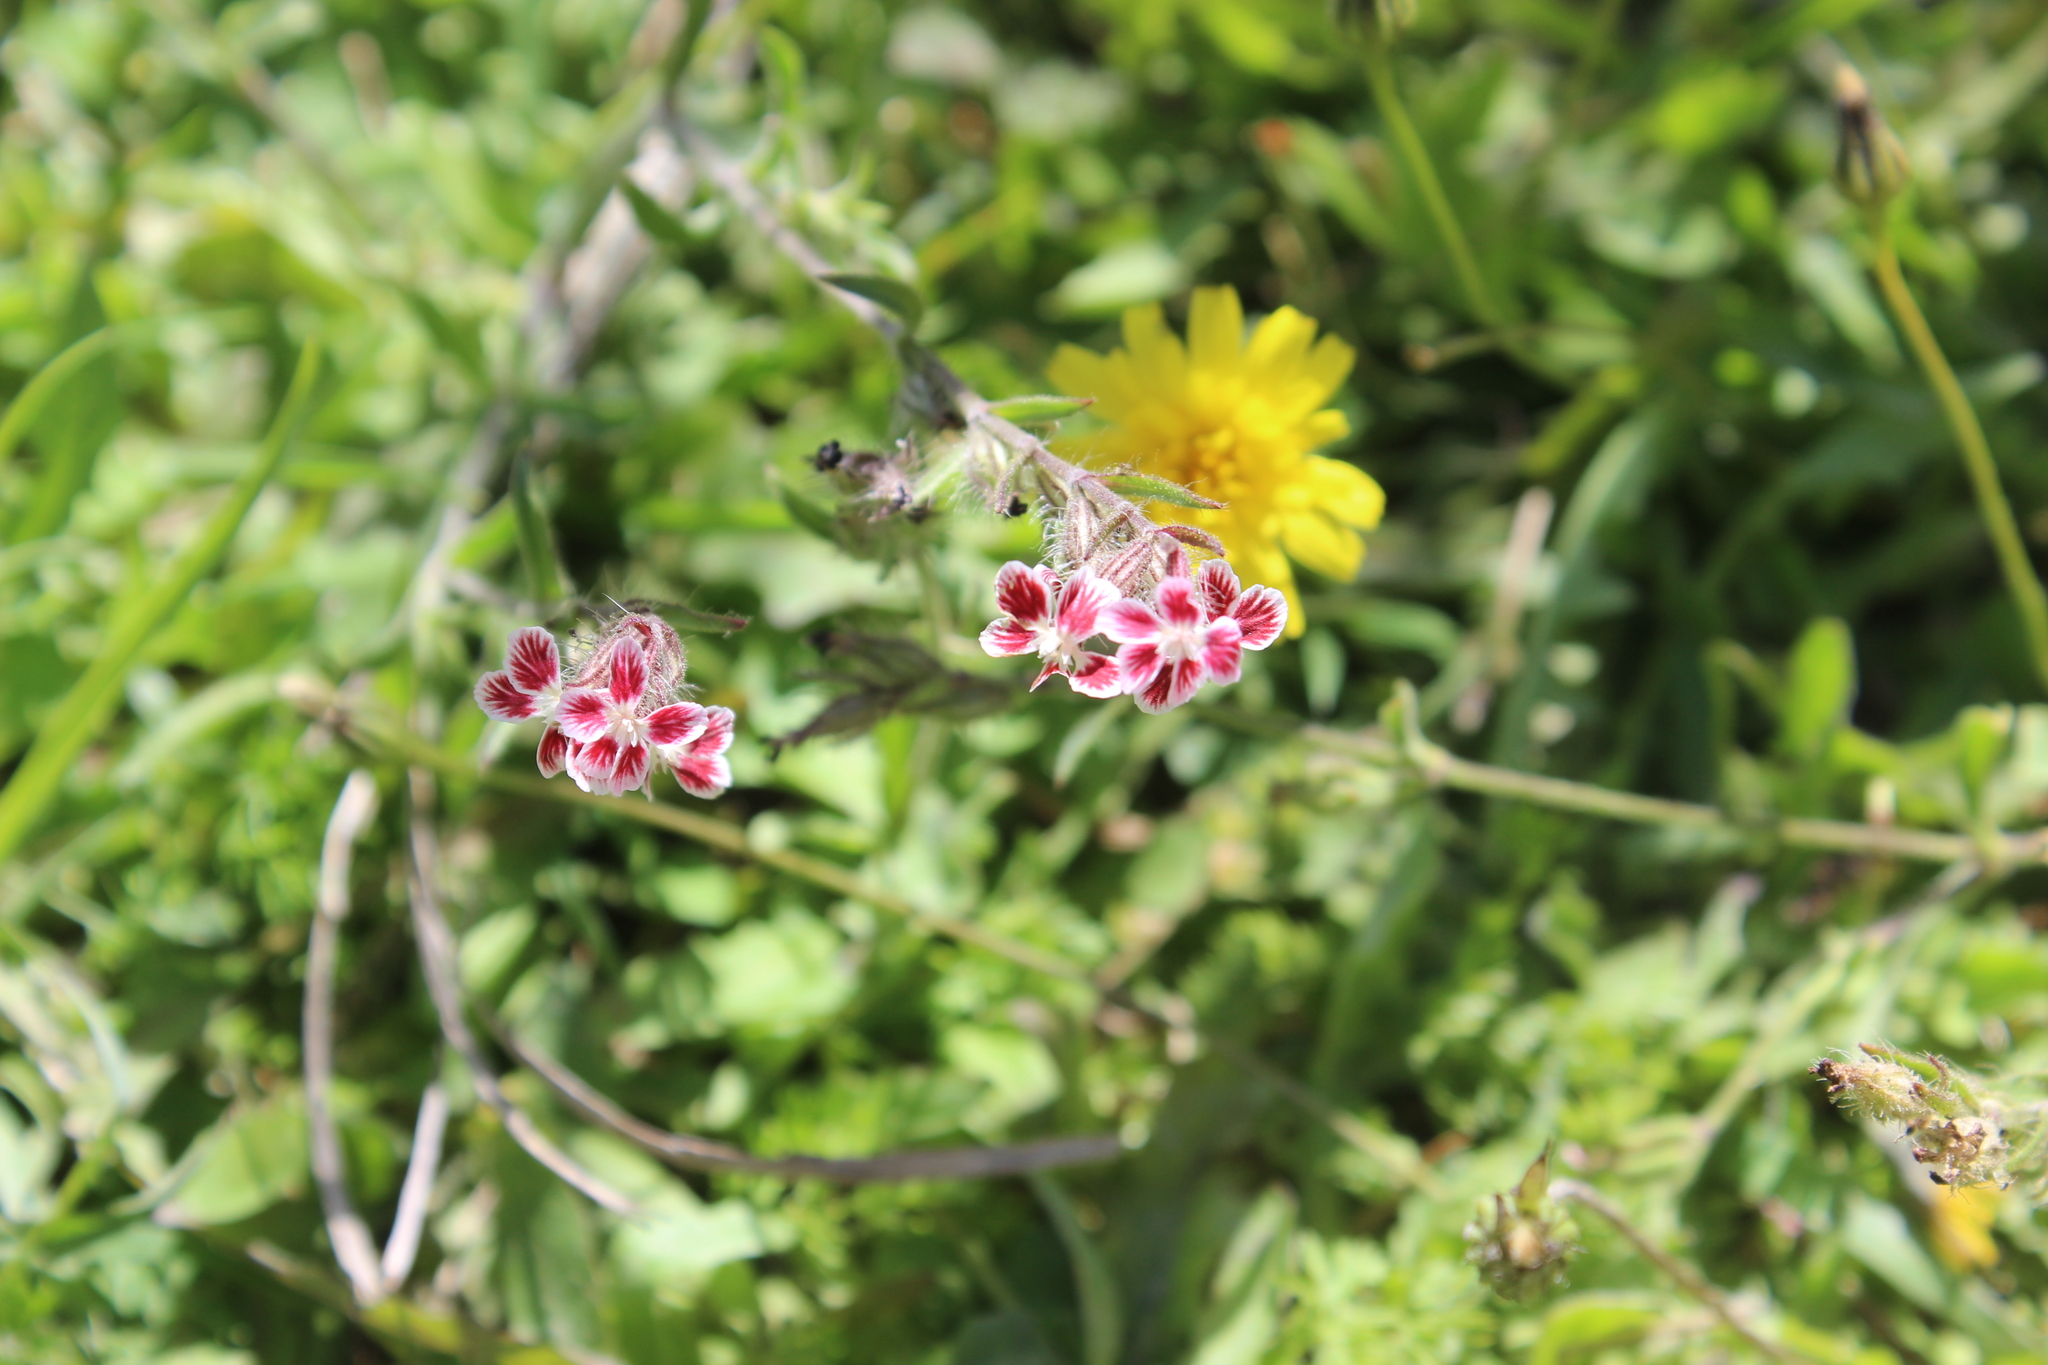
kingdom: Plantae
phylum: Tracheophyta
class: Magnoliopsida
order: Caryophyllales
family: Caryophyllaceae
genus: Silene
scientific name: Silene gallica
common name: Small-flowered catchfly
